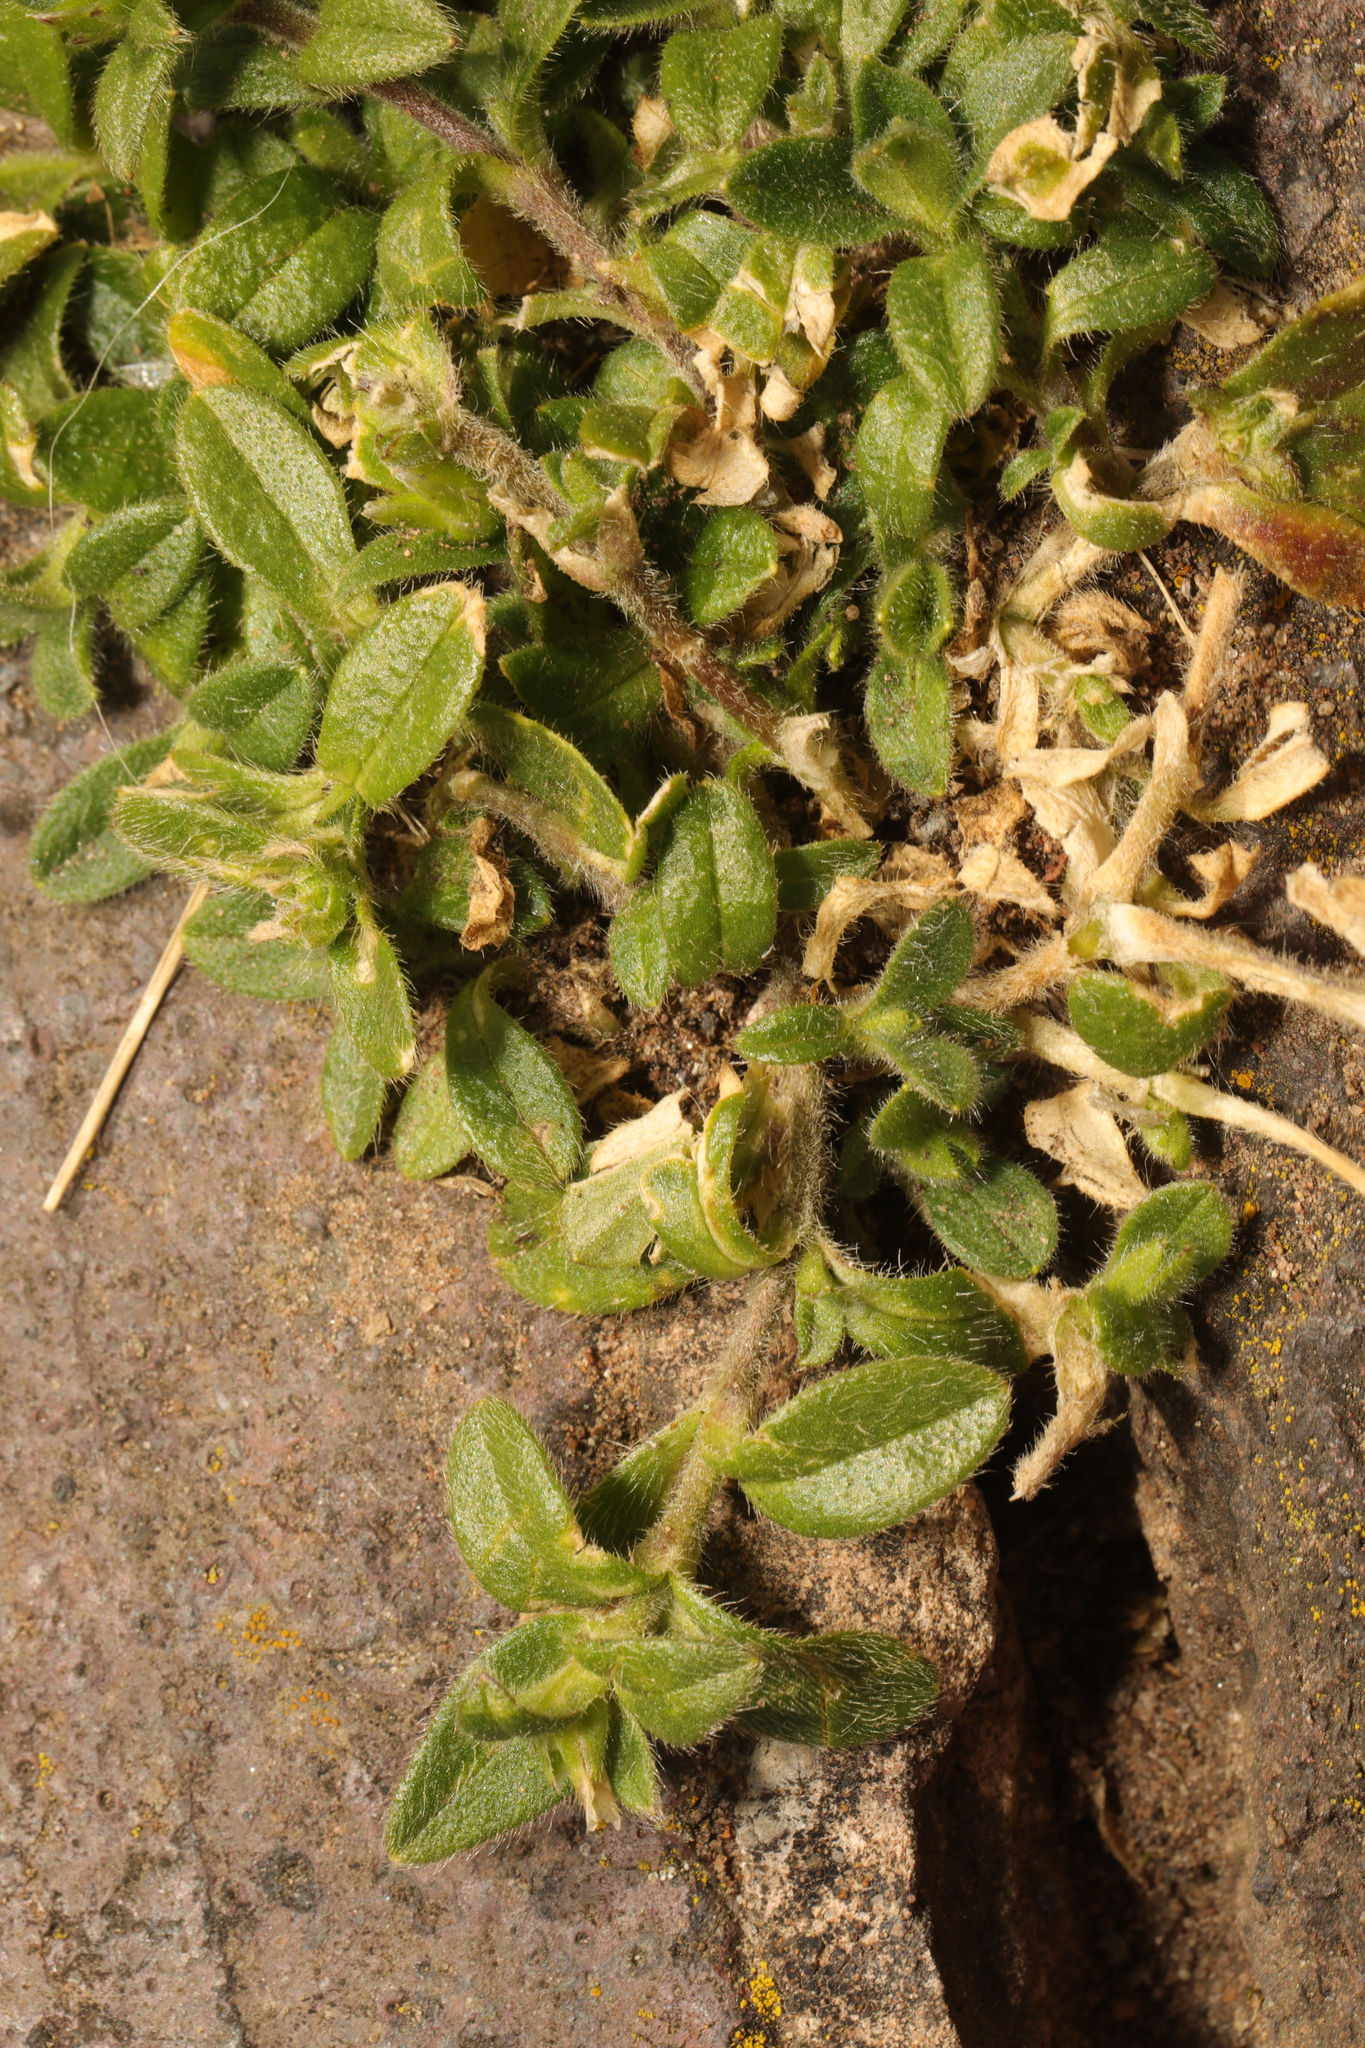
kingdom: Plantae
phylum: Tracheophyta
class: Magnoliopsida
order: Caryophyllales
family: Caryophyllaceae
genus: Cerastium
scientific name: Cerastium fontanum
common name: Common mouse-ear
